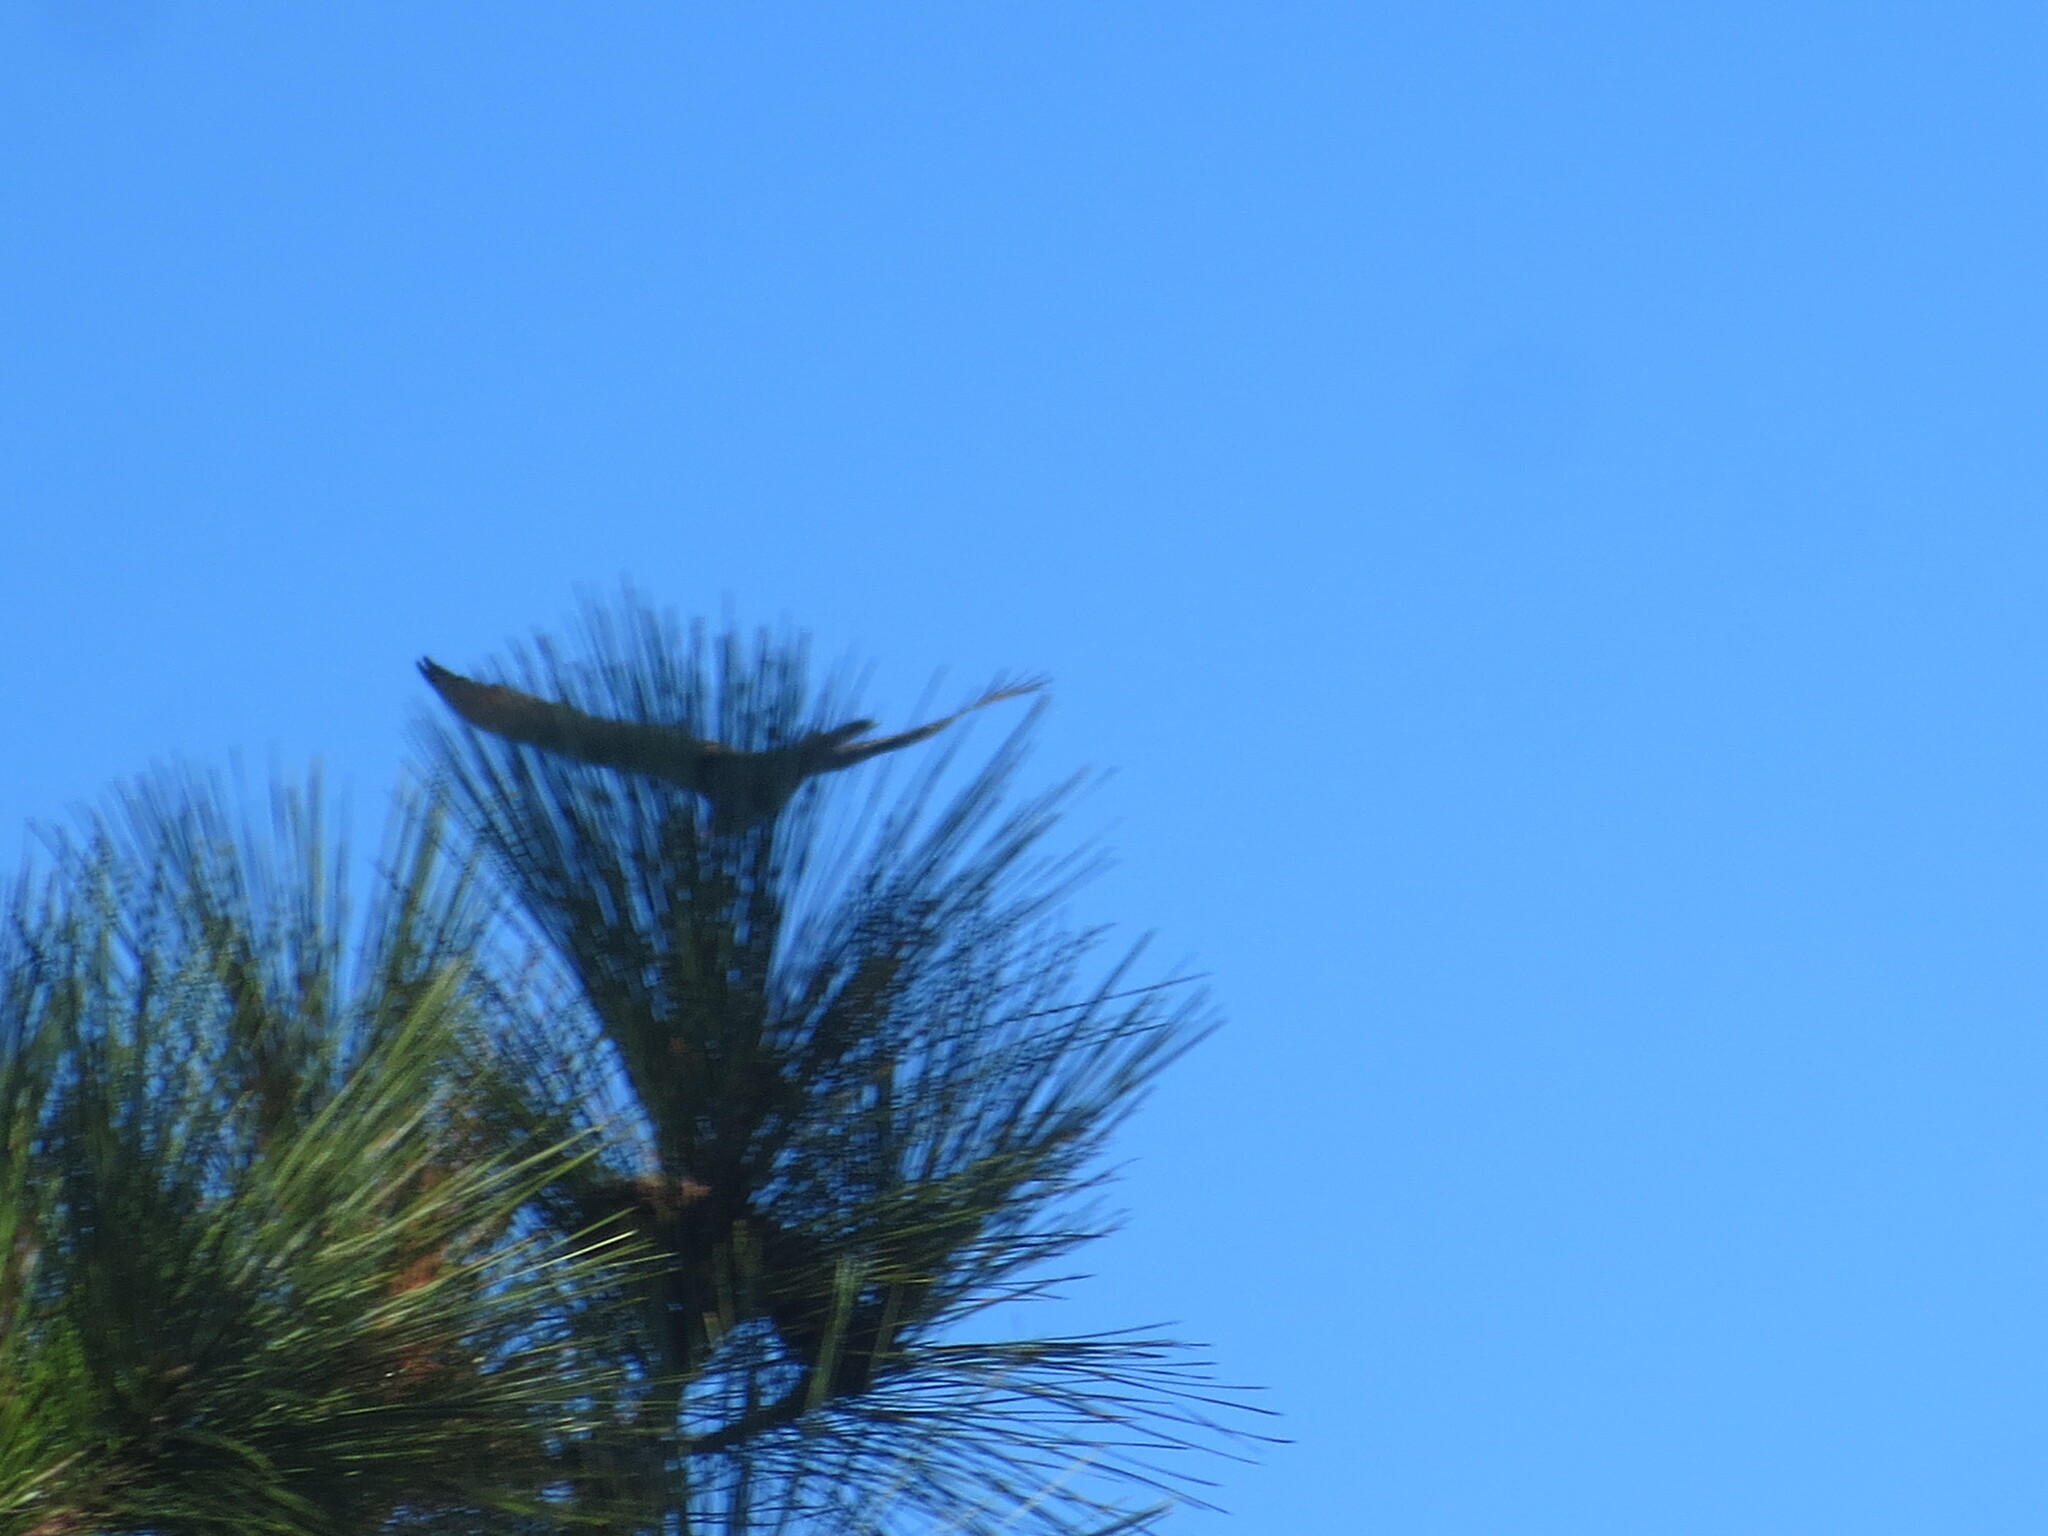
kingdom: Animalia
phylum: Chordata
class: Aves
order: Accipitriformes
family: Cathartidae
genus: Cathartes
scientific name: Cathartes aura
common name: Turkey vulture
